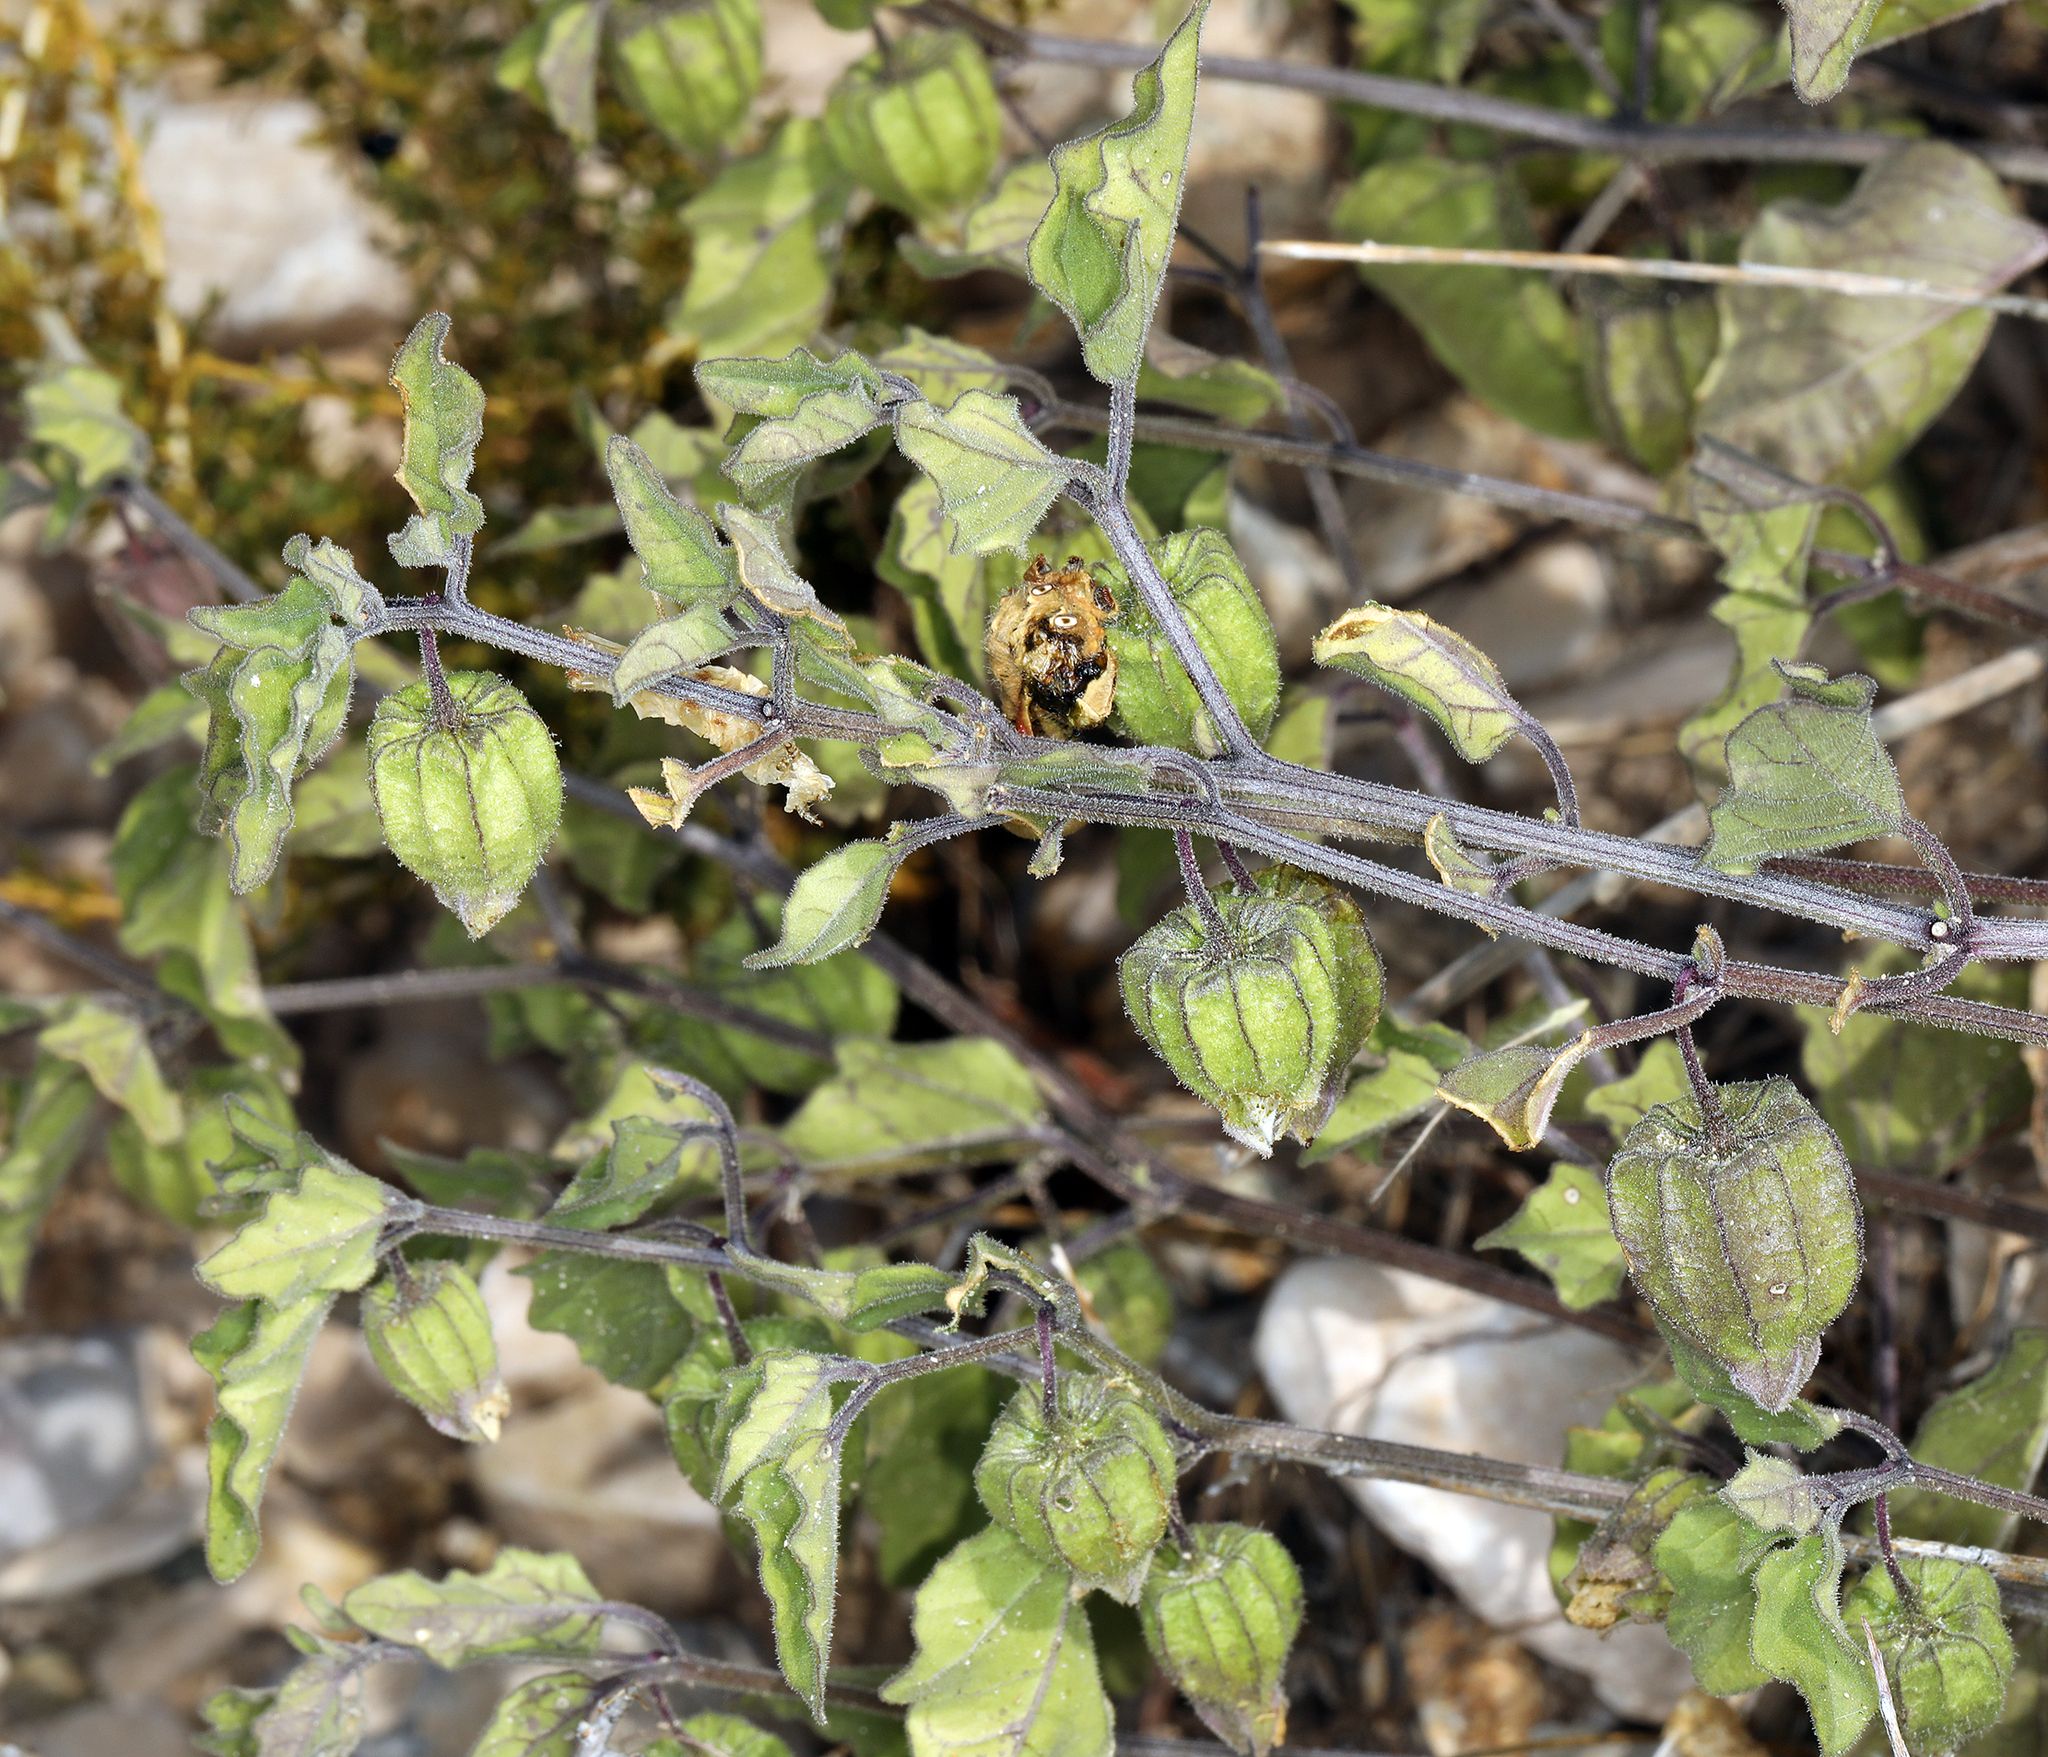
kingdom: Plantae
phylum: Tracheophyta
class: Magnoliopsida
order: Solanales
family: Solanaceae
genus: Physalis
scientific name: Physalis hederifolia
